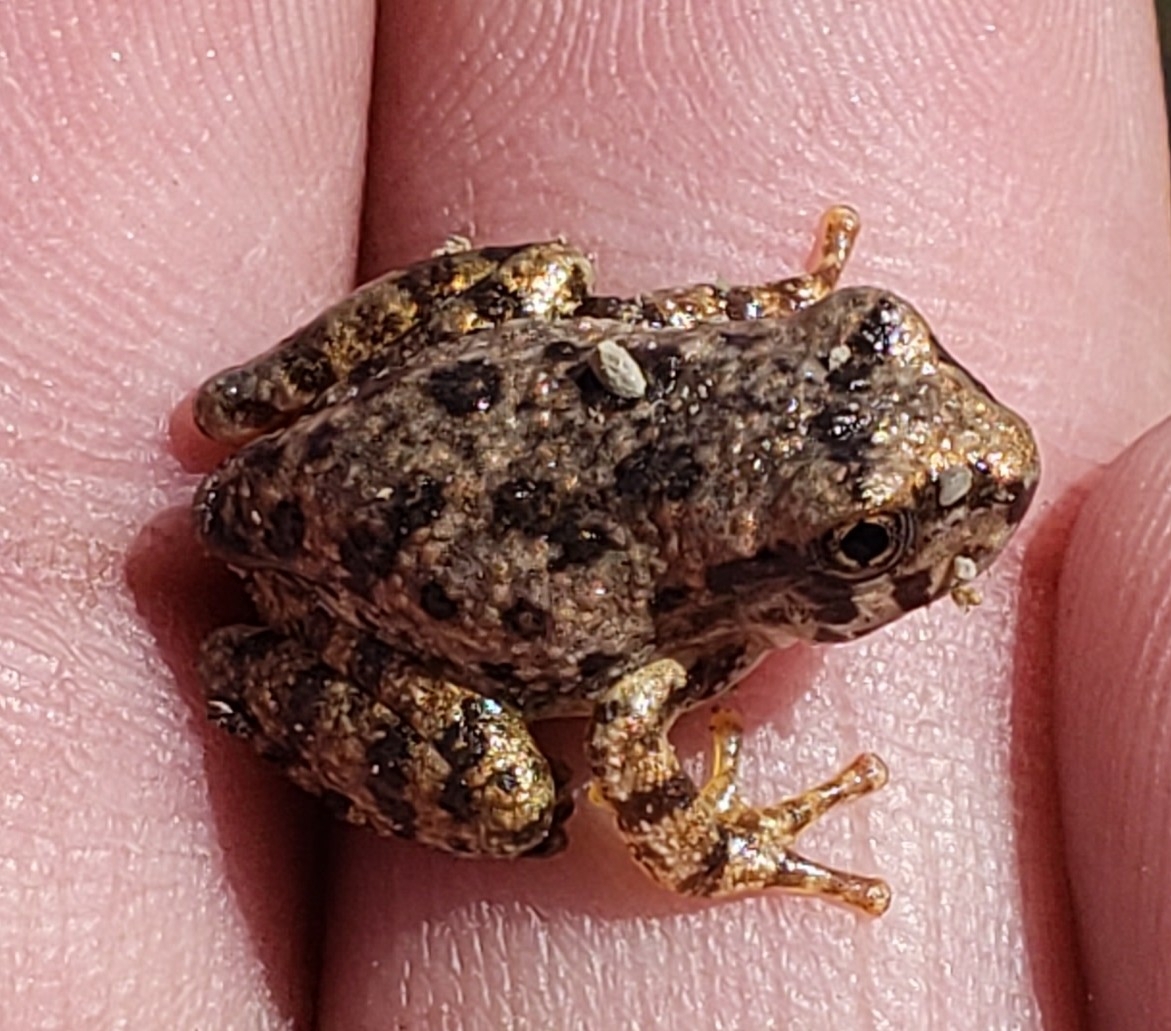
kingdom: Animalia
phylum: Chordata
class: Amphibia
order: Anura
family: Hylidae
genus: Dryophytes
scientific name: Dryophytes arenicolor
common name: Canyon treefrog
